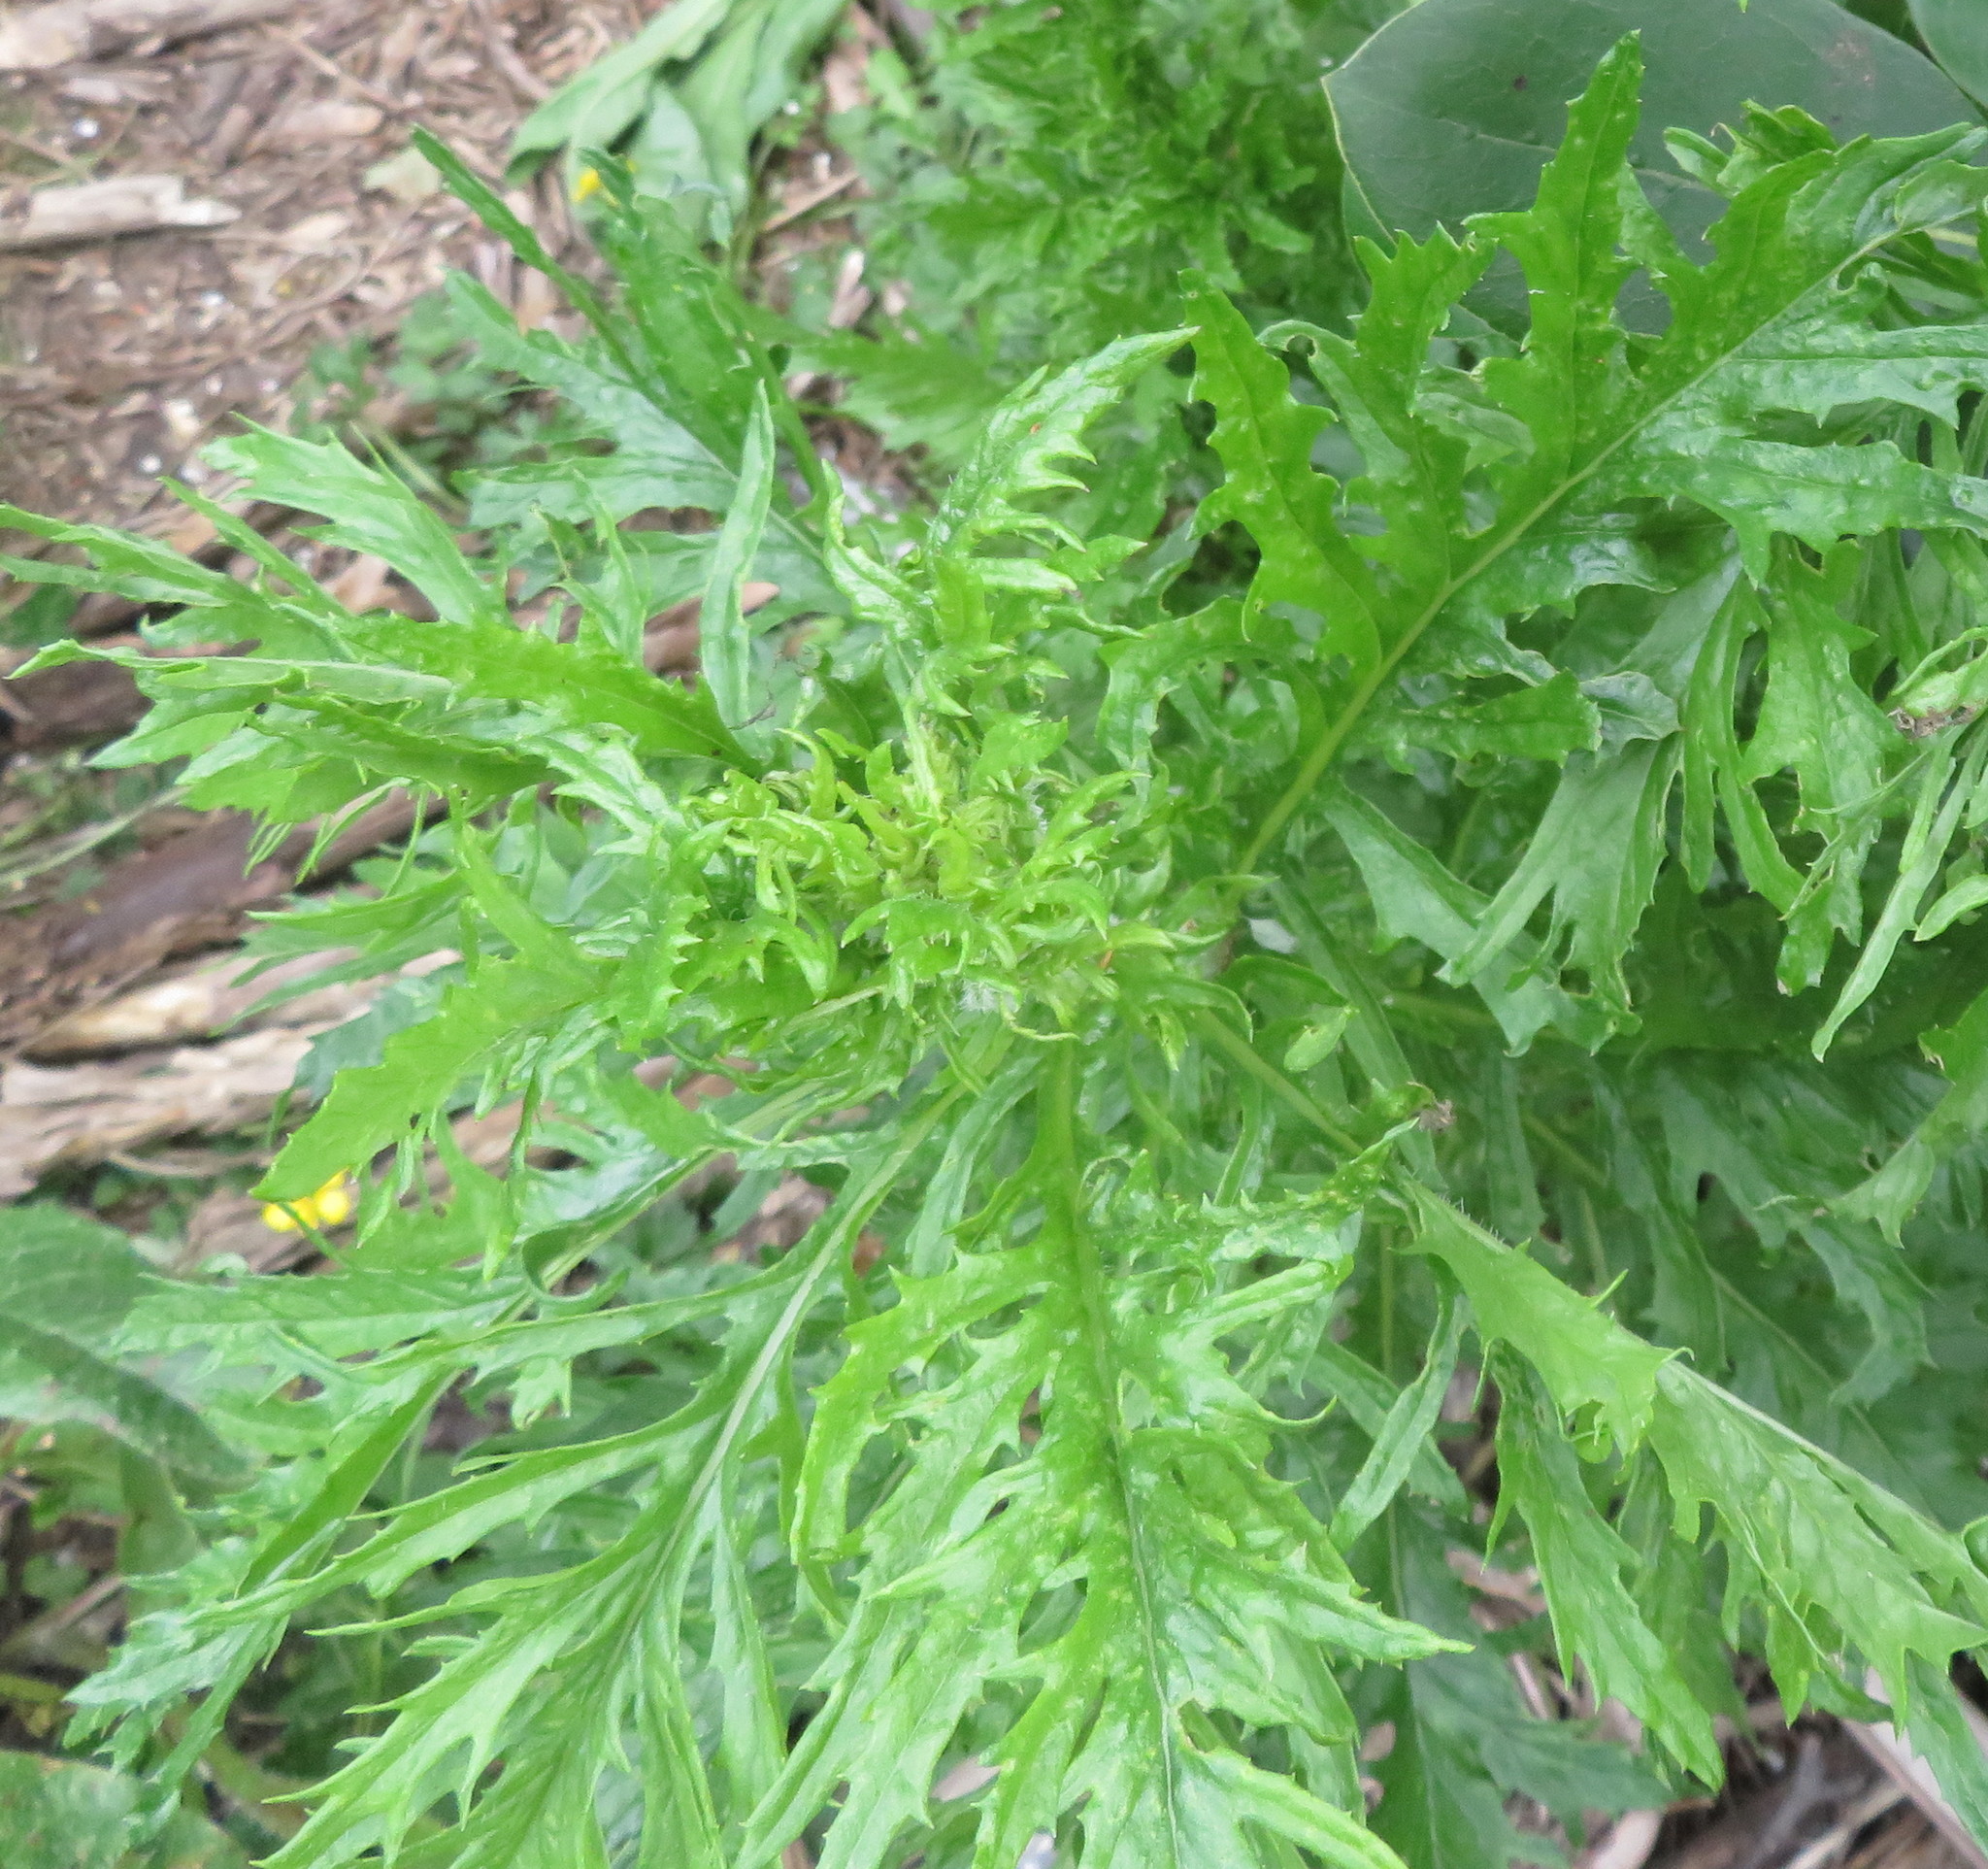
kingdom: Plantae
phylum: Tracheophyta
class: Magnoliopsida
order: Asterales
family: Asteraceae
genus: Senecio
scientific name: Senecio esleri
